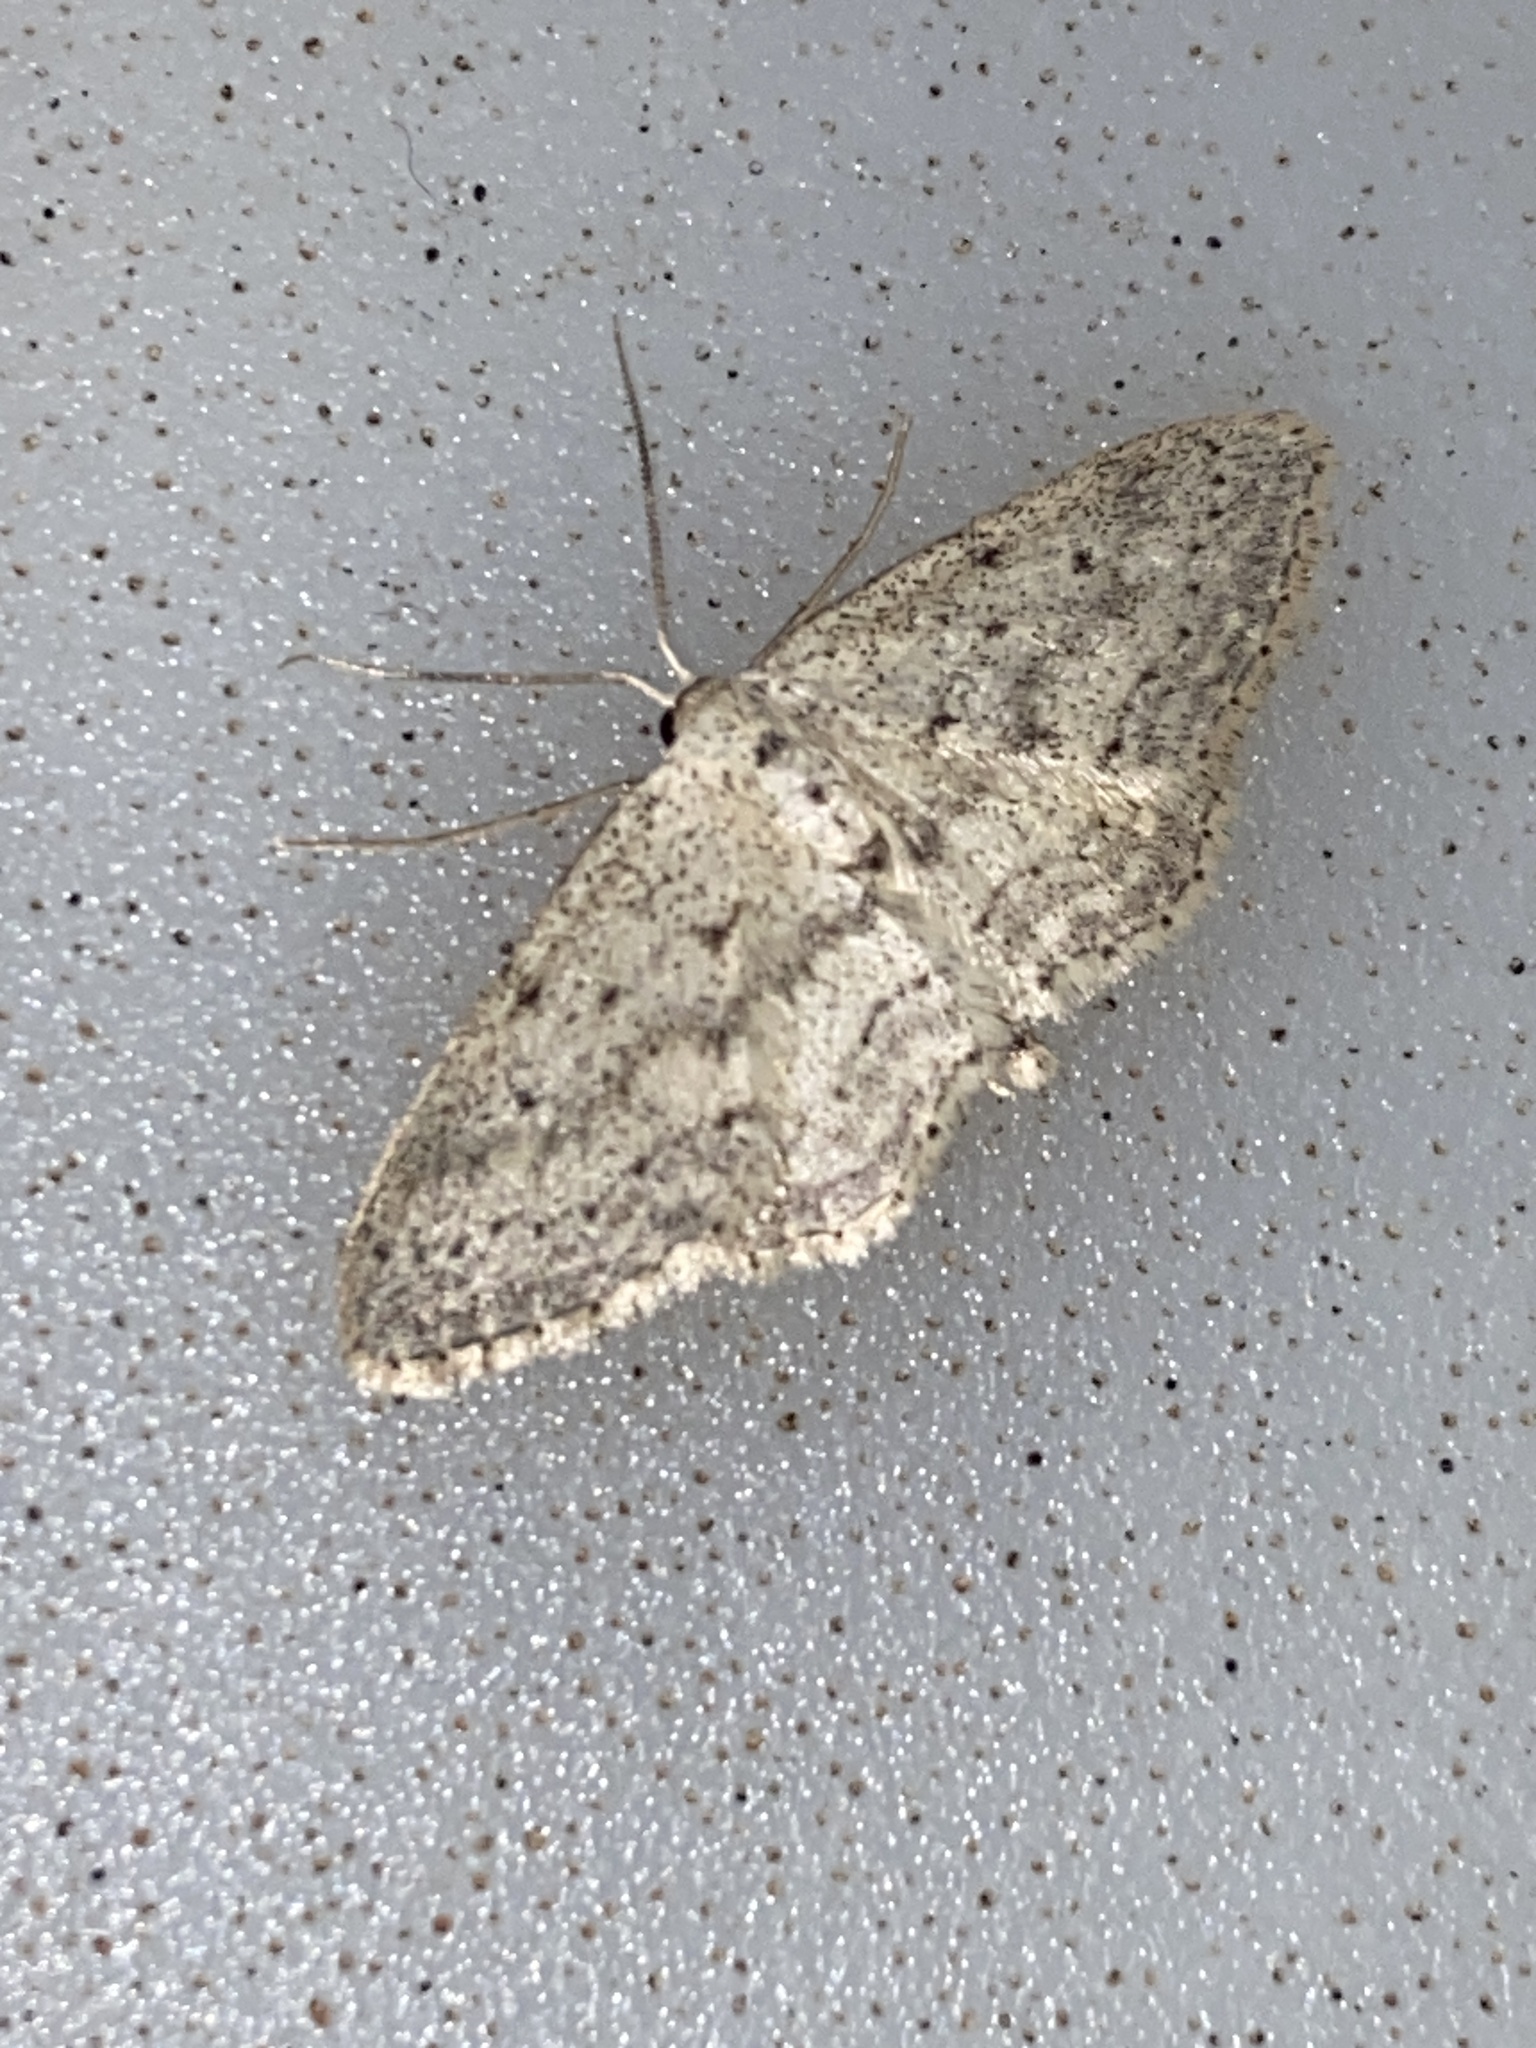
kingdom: Animalia
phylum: Arthropoda
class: Insecta
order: Lepidoptera
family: Geometridae
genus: Idaea
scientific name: Idaea seriata
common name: Small dusty wave
